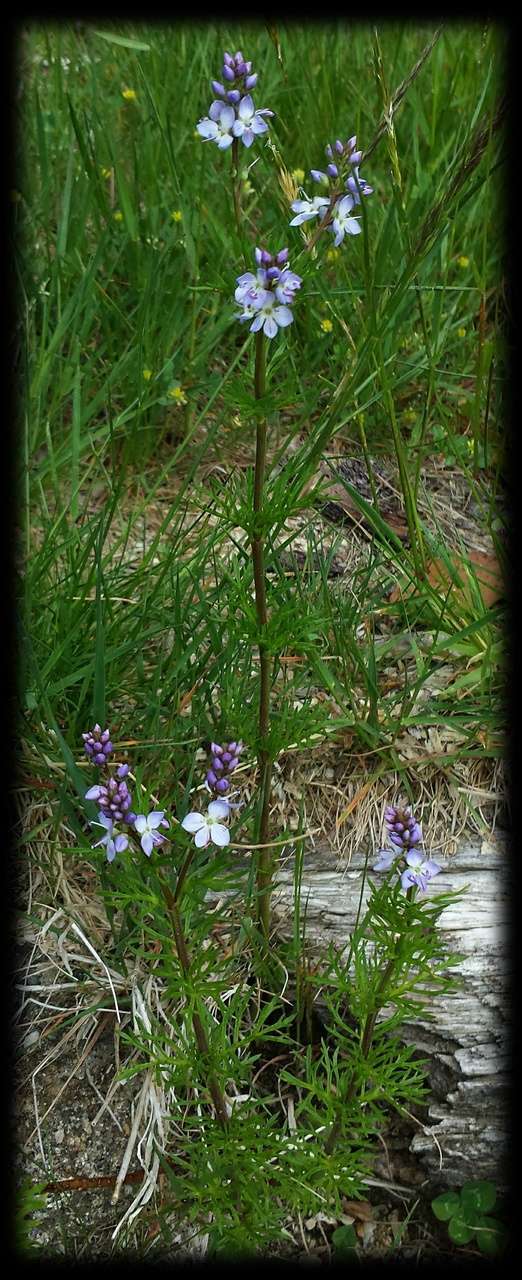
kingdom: Plantae
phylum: Tracheophyta
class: Magnoliopsida
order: Lamiales
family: Plantaginaceae
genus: Veronica
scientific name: Veronica nivea
